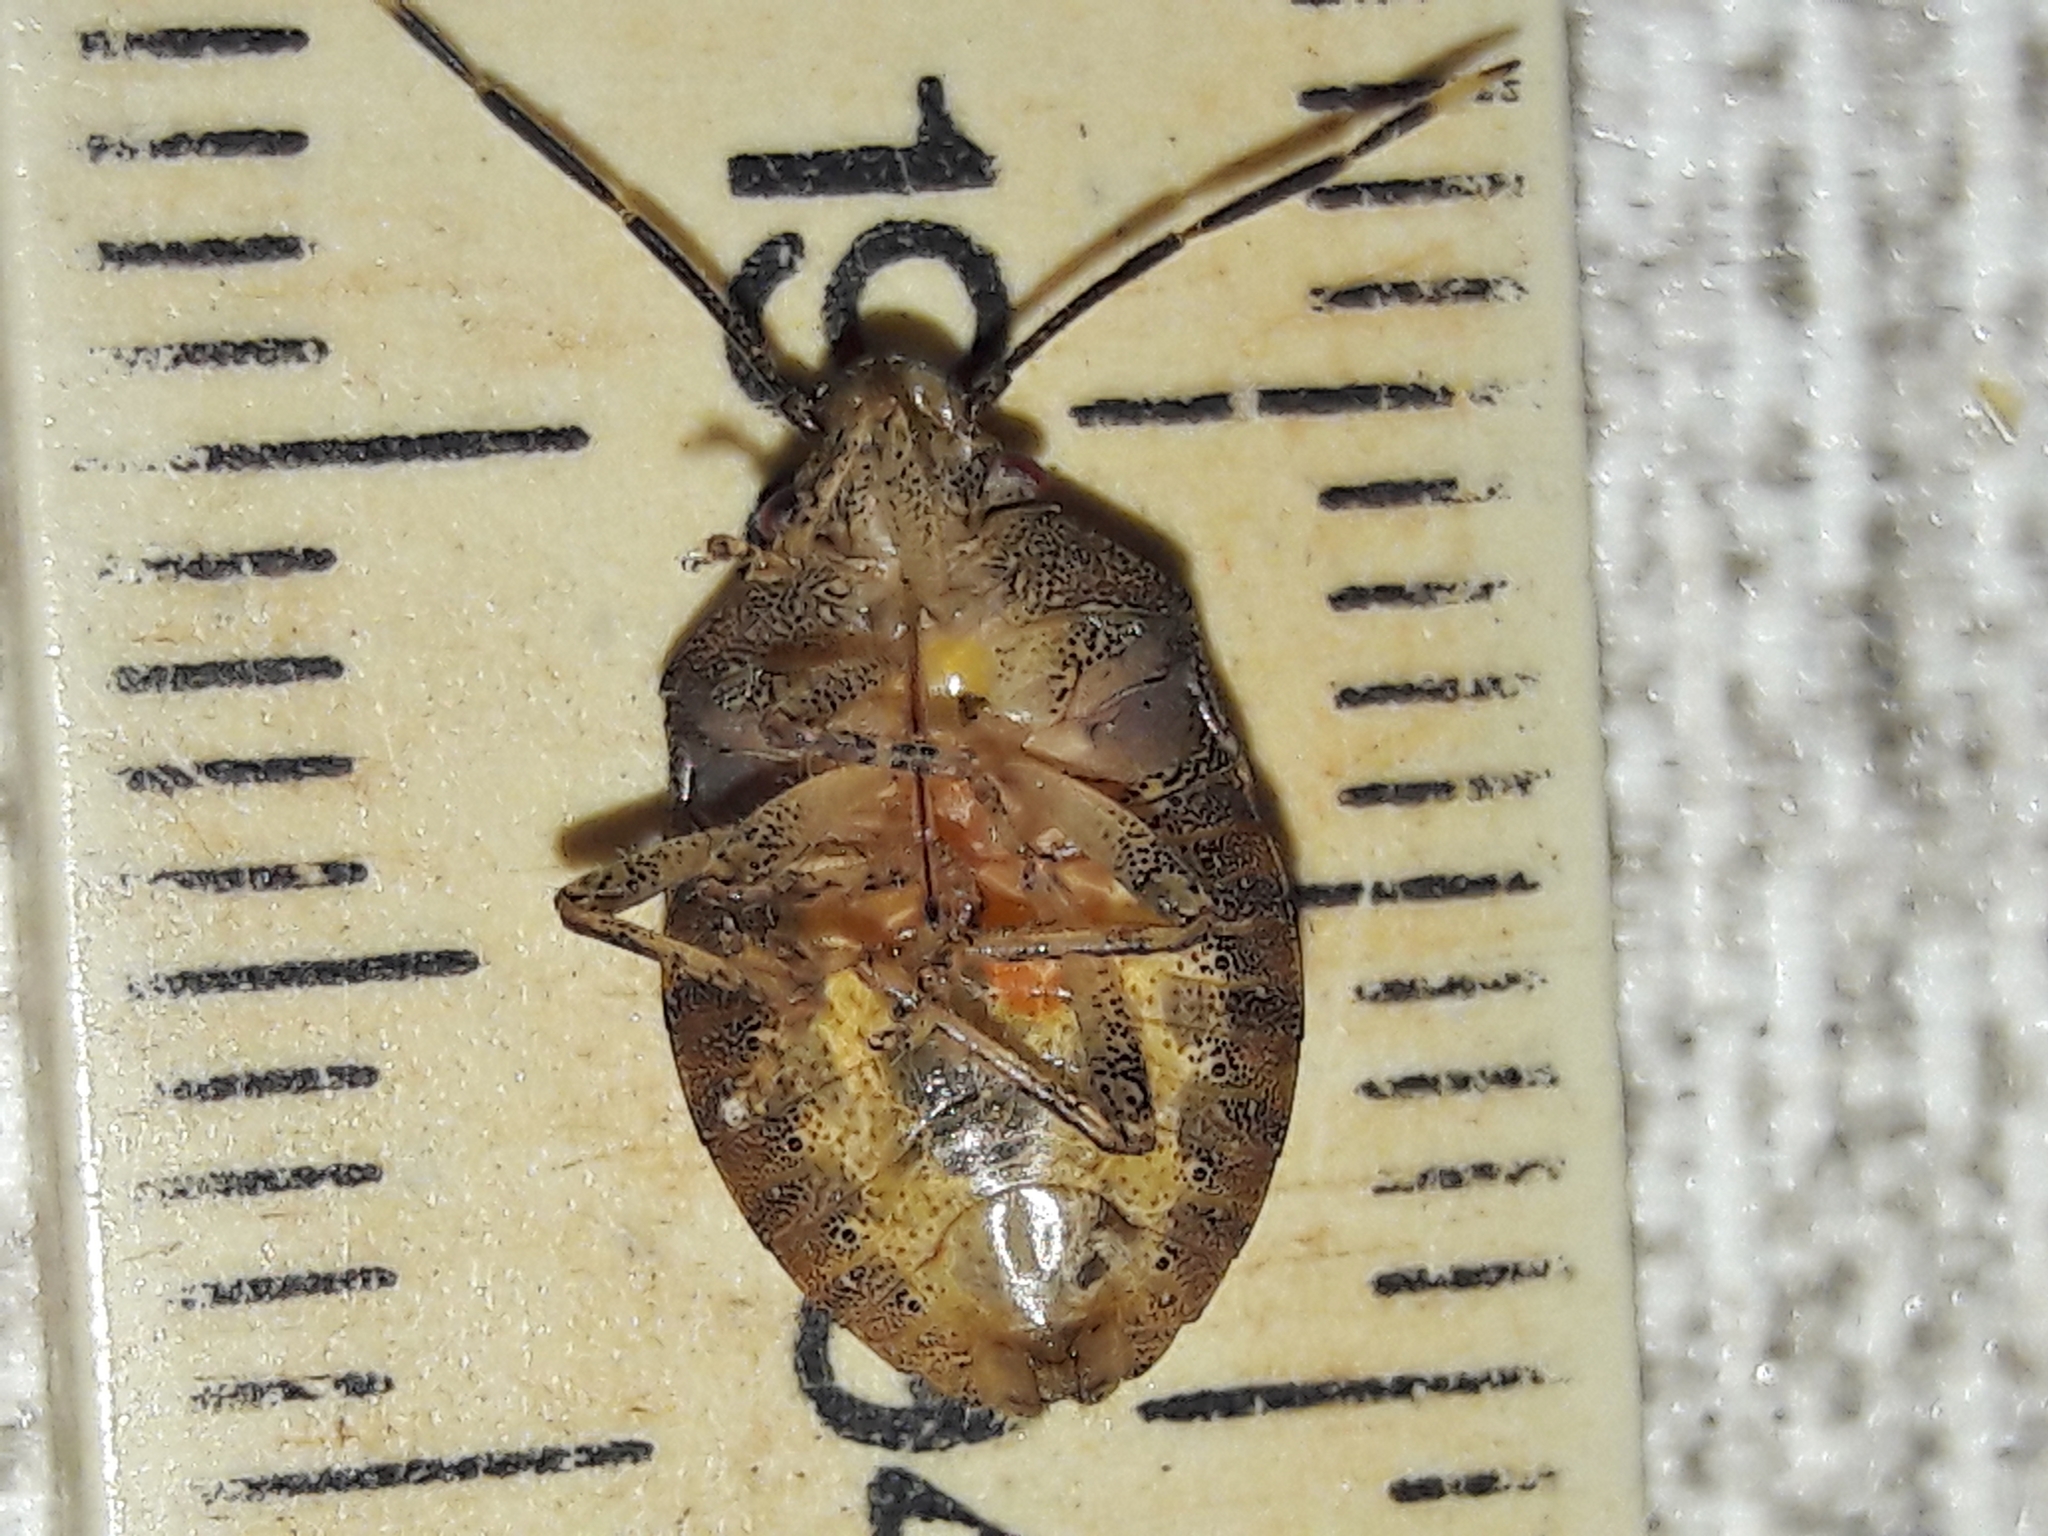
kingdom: Animalia
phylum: Arthropoda
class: Insecta
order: Hemiptera
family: Pentatomidae
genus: Antiteuchus
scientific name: Antiteuchus tripterus
